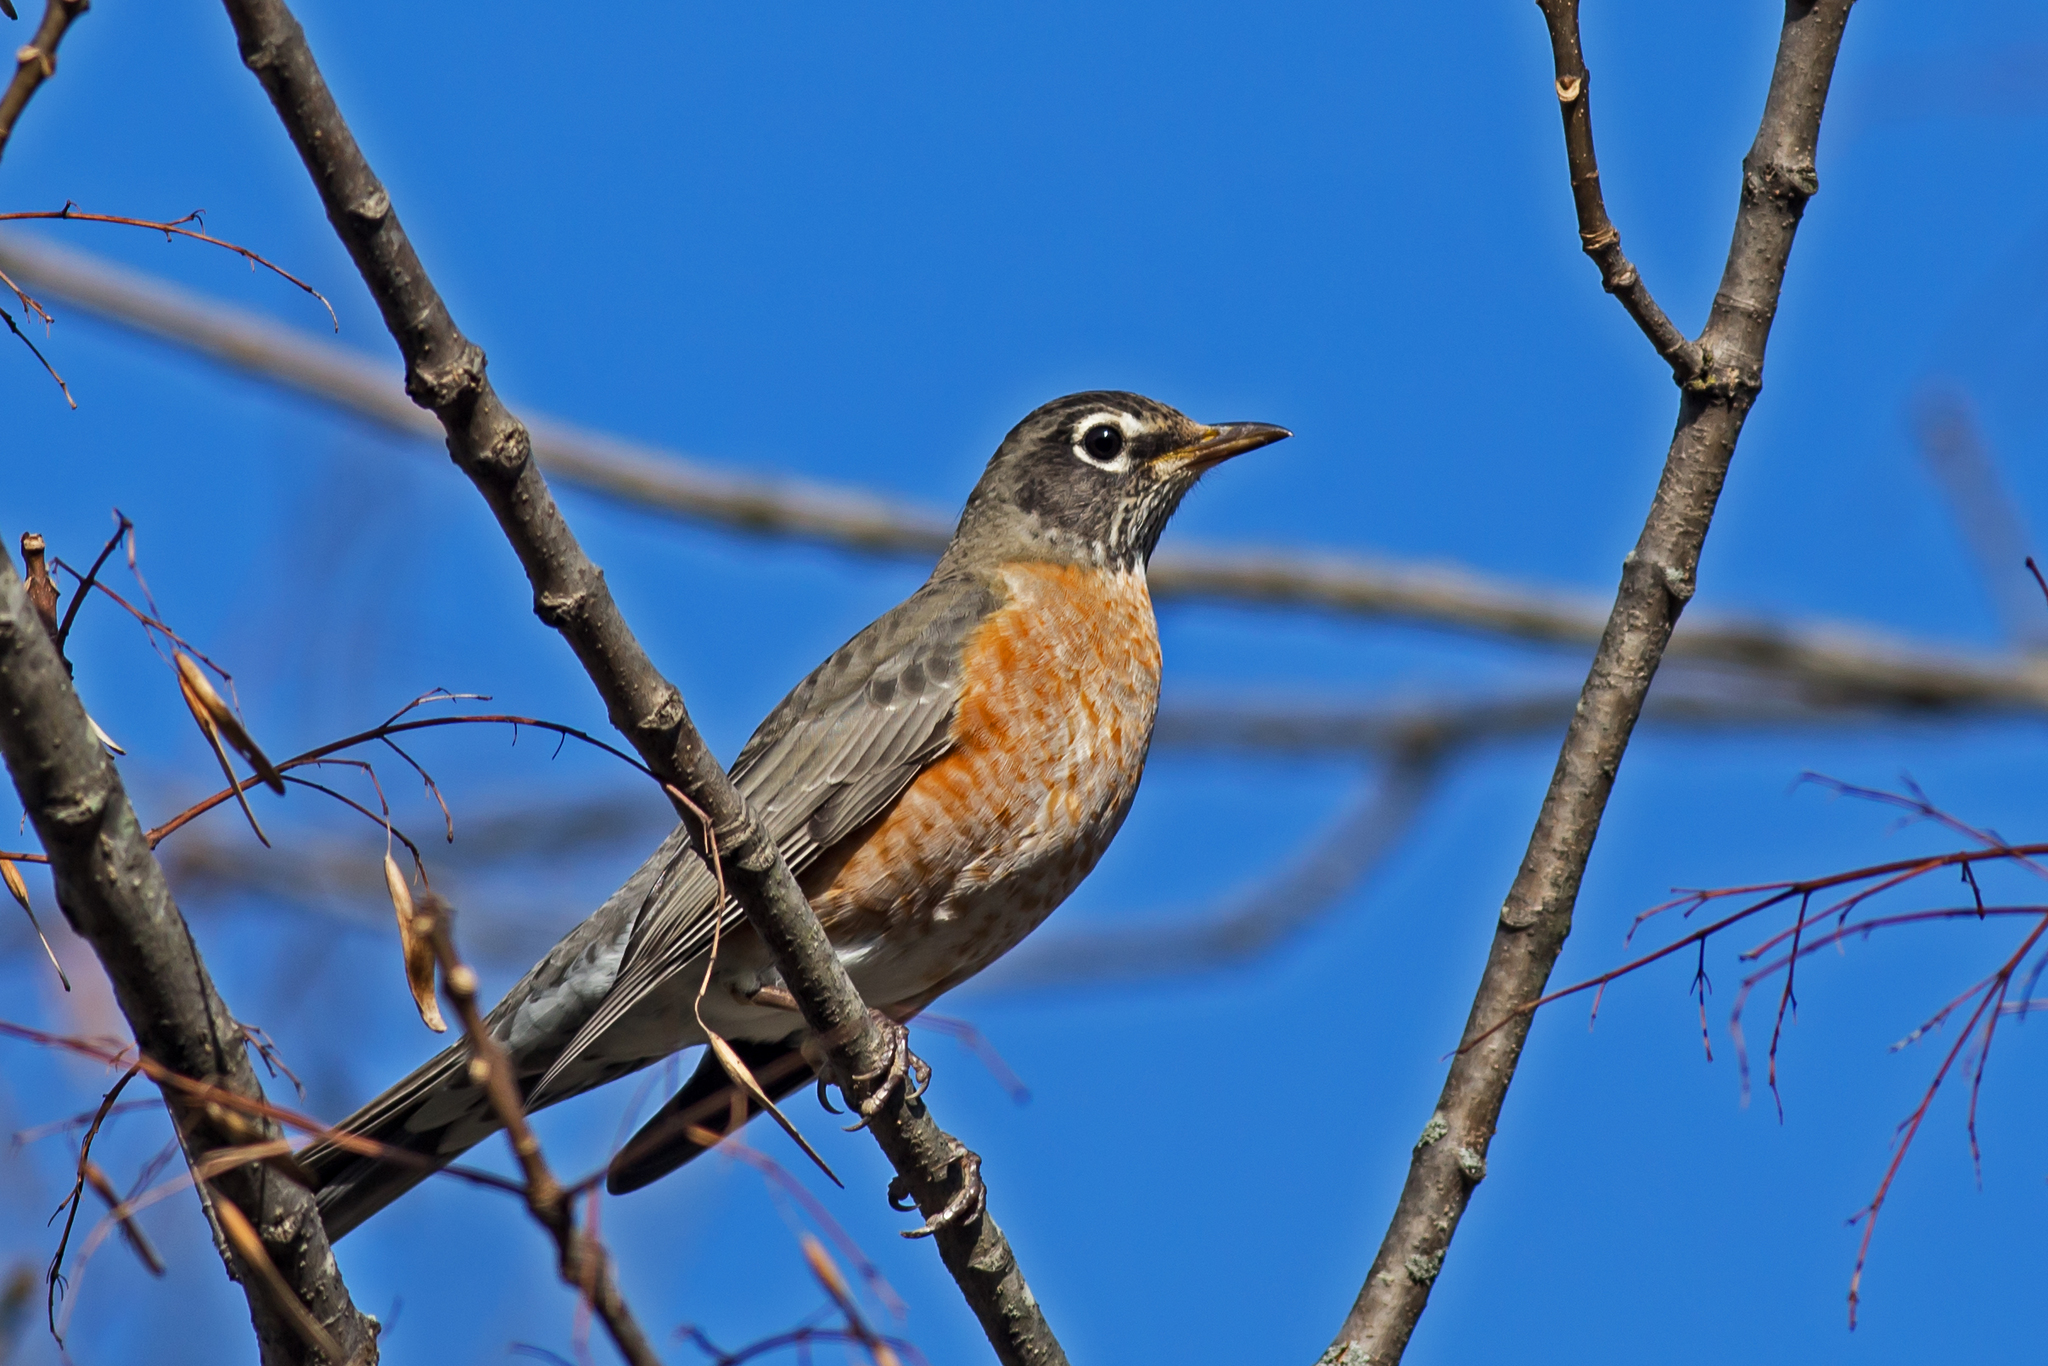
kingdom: Animalia
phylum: Chordata
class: Aves
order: Passeriformes
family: Turdidae
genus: Turdus
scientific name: Turdus migratorius
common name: American robin
